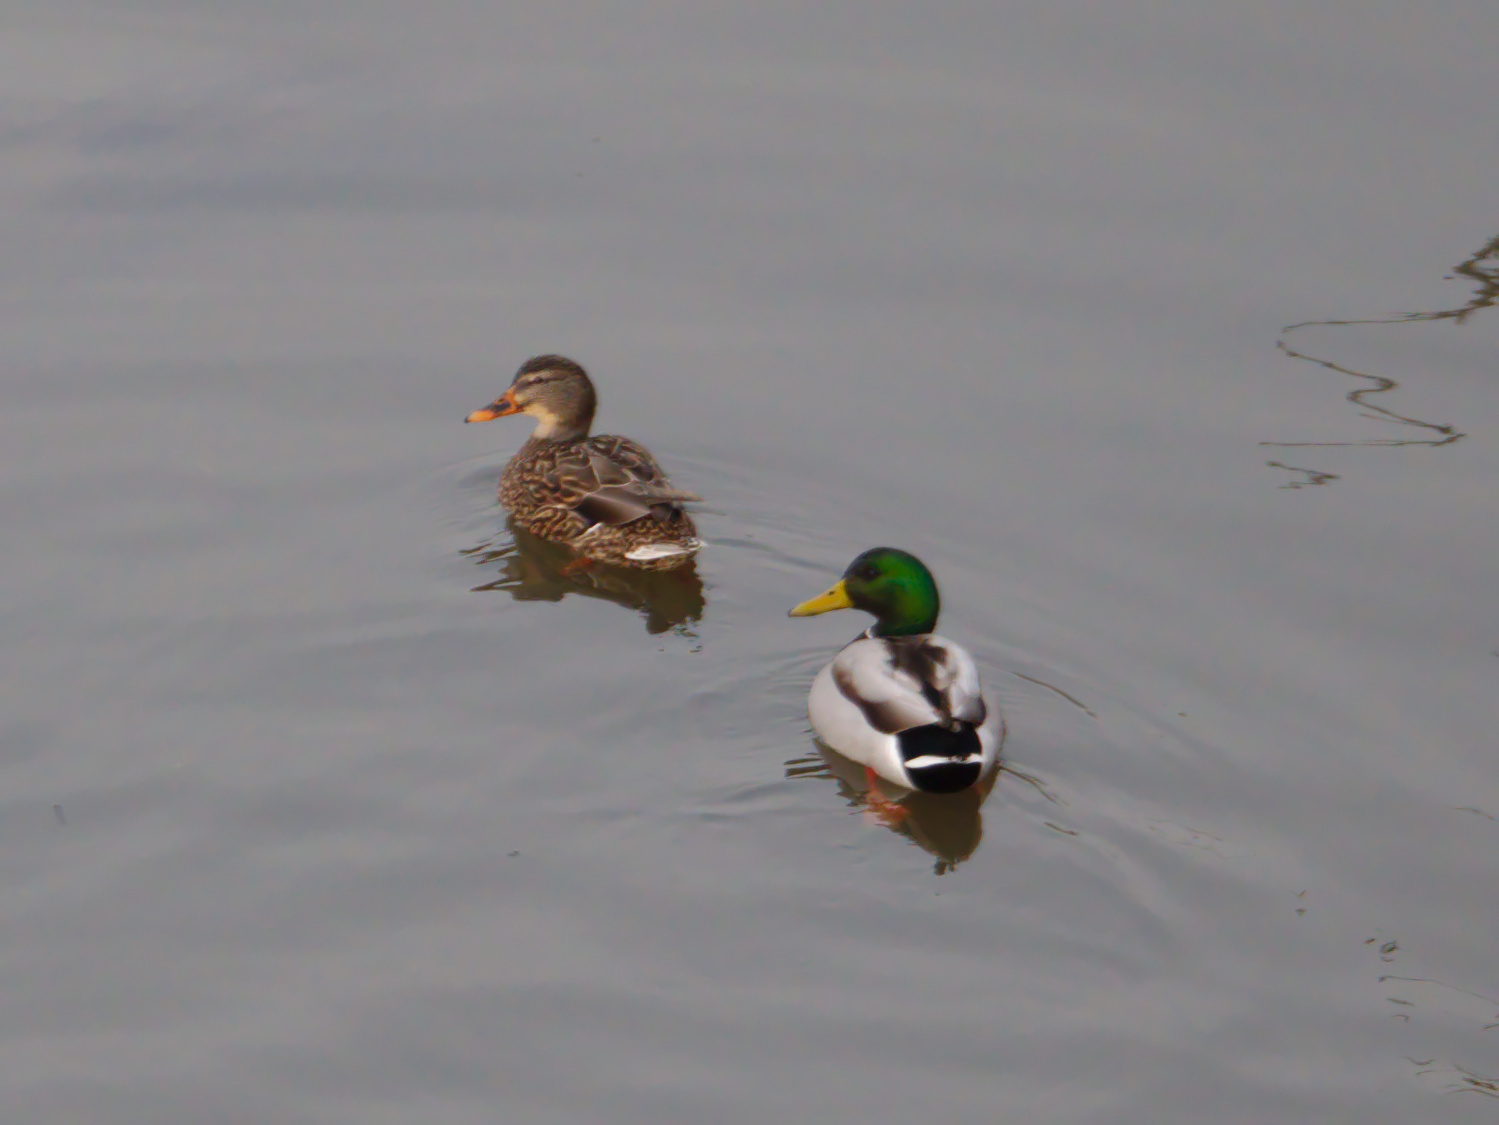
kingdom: Animalia
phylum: Chordata
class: Aves
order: Anseriformes
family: Anatidae
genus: Anas
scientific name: Anas platyrhynchos
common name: Mallard
